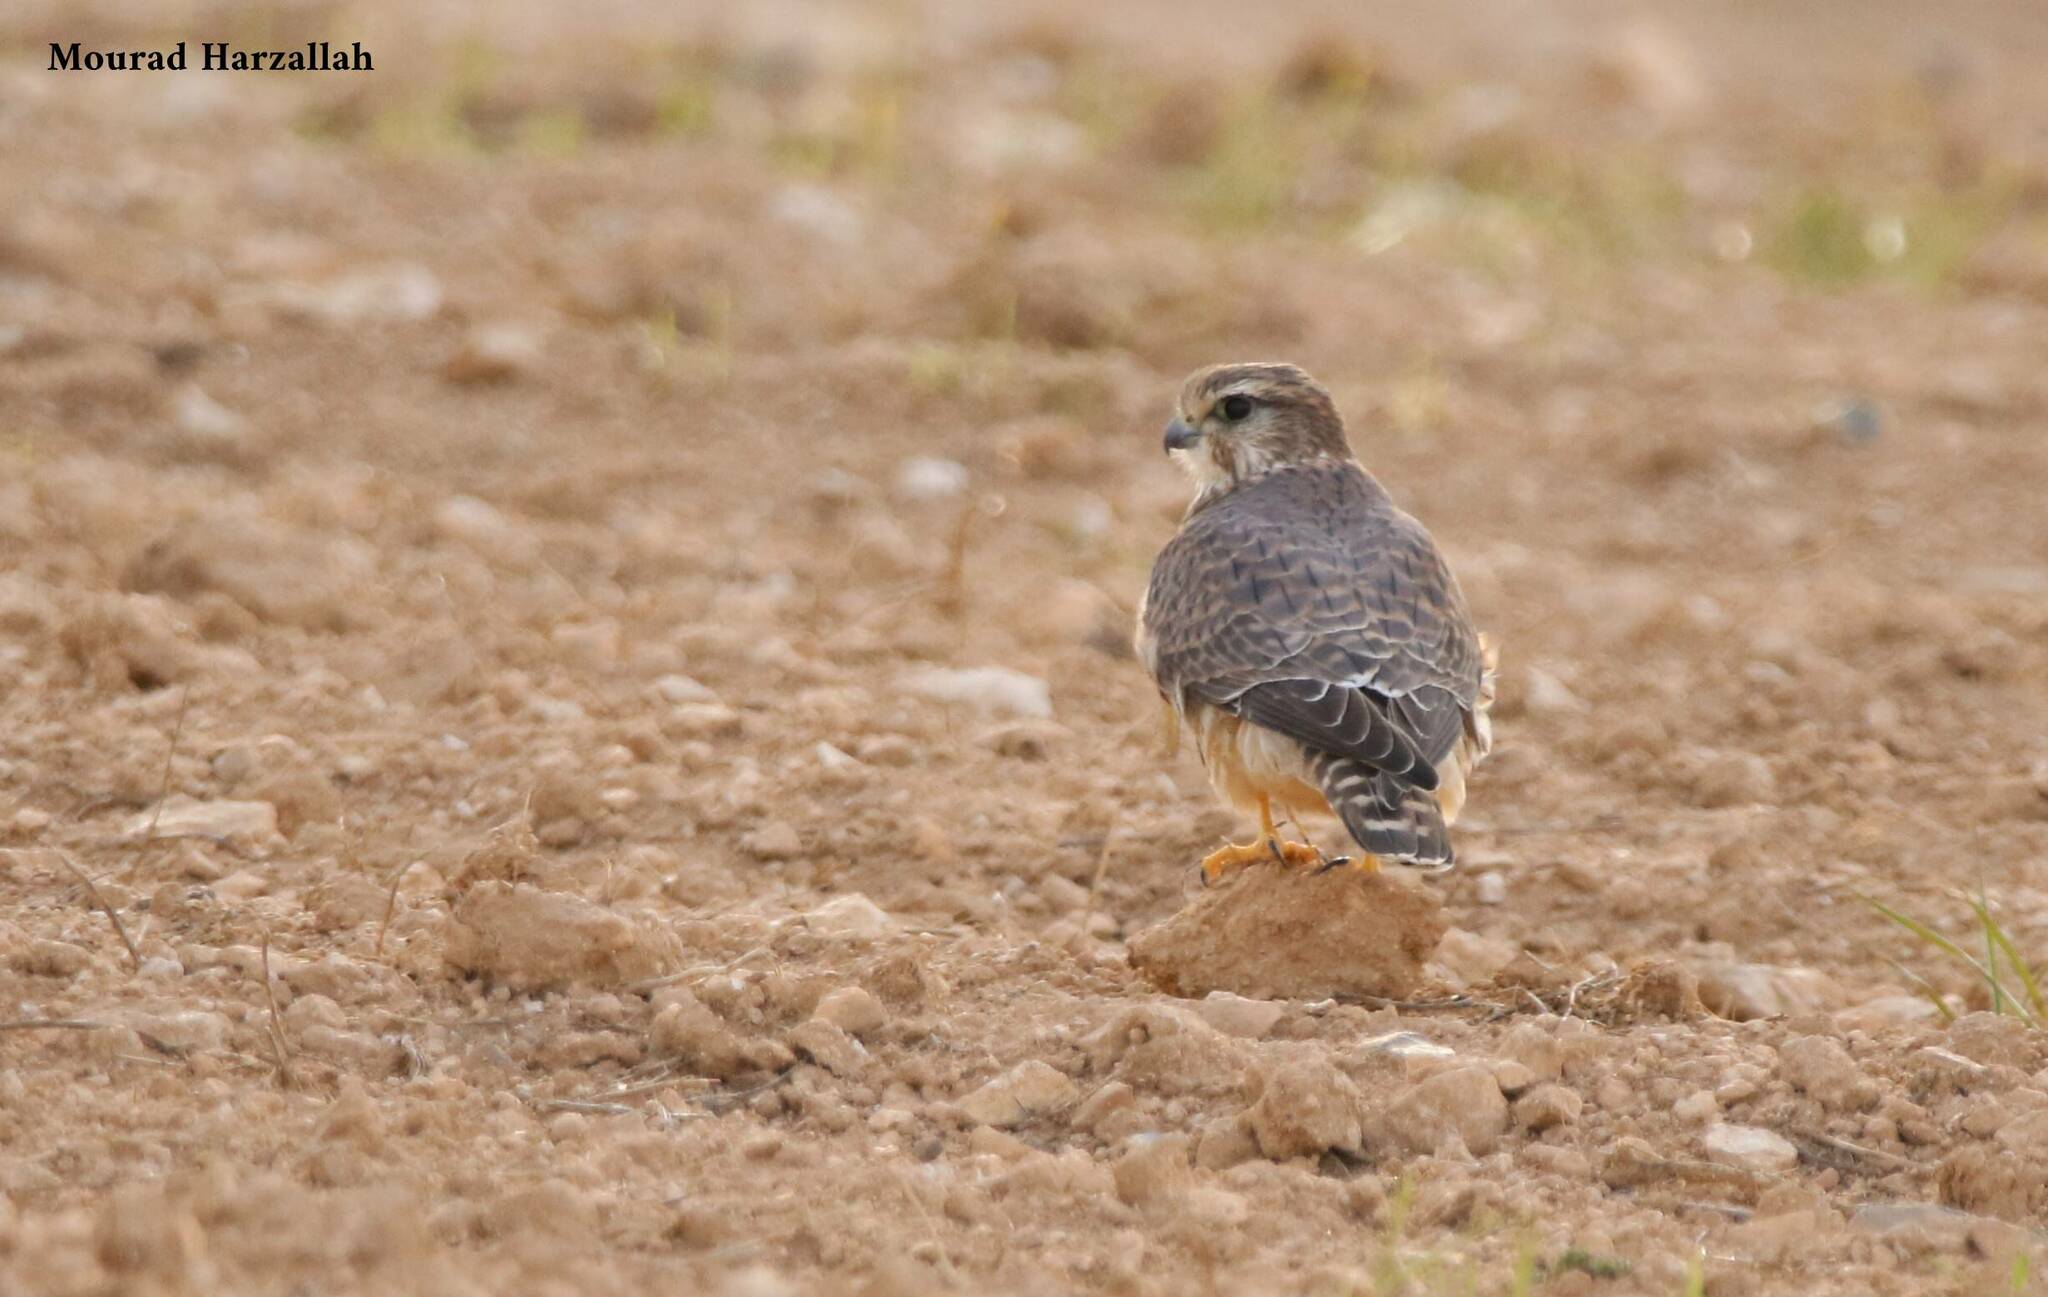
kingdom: Animalia
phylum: Chordata
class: Aves
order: Falconiformes
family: Falconidae
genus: Falco
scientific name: Falco columbarius
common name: Merlin
